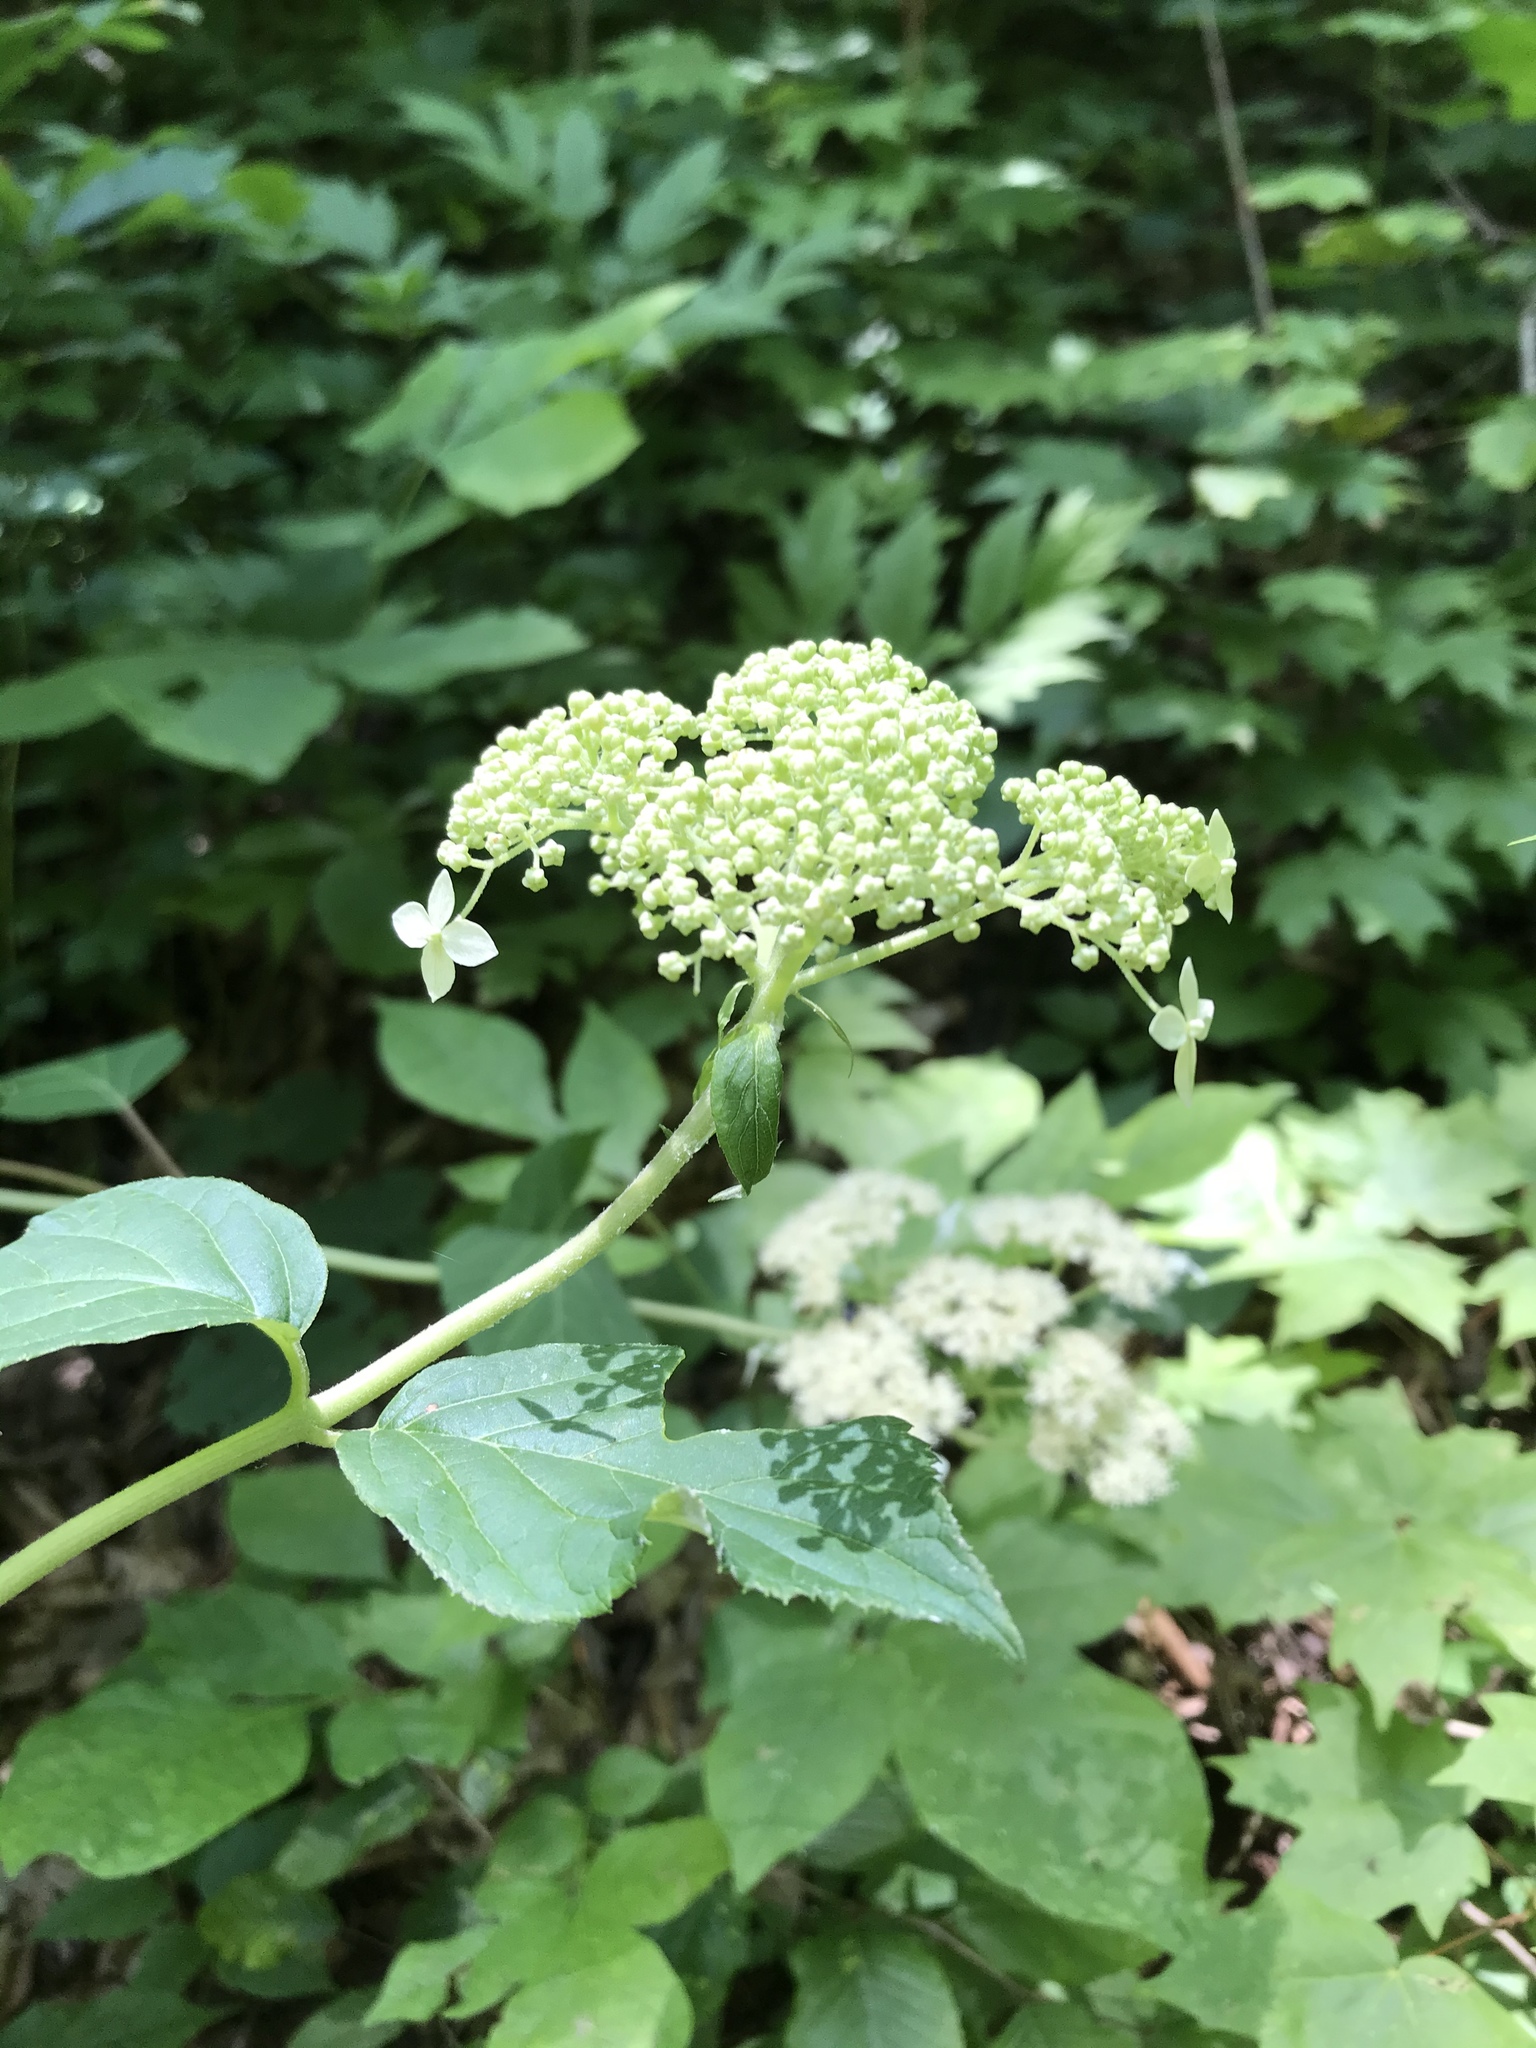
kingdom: Plantae
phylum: Tracheophyta
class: Magnoliopsida
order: Cornales
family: Hydrangeaceae
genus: Hydrangea
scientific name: Hydrangea arborescens
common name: Sevenbark
